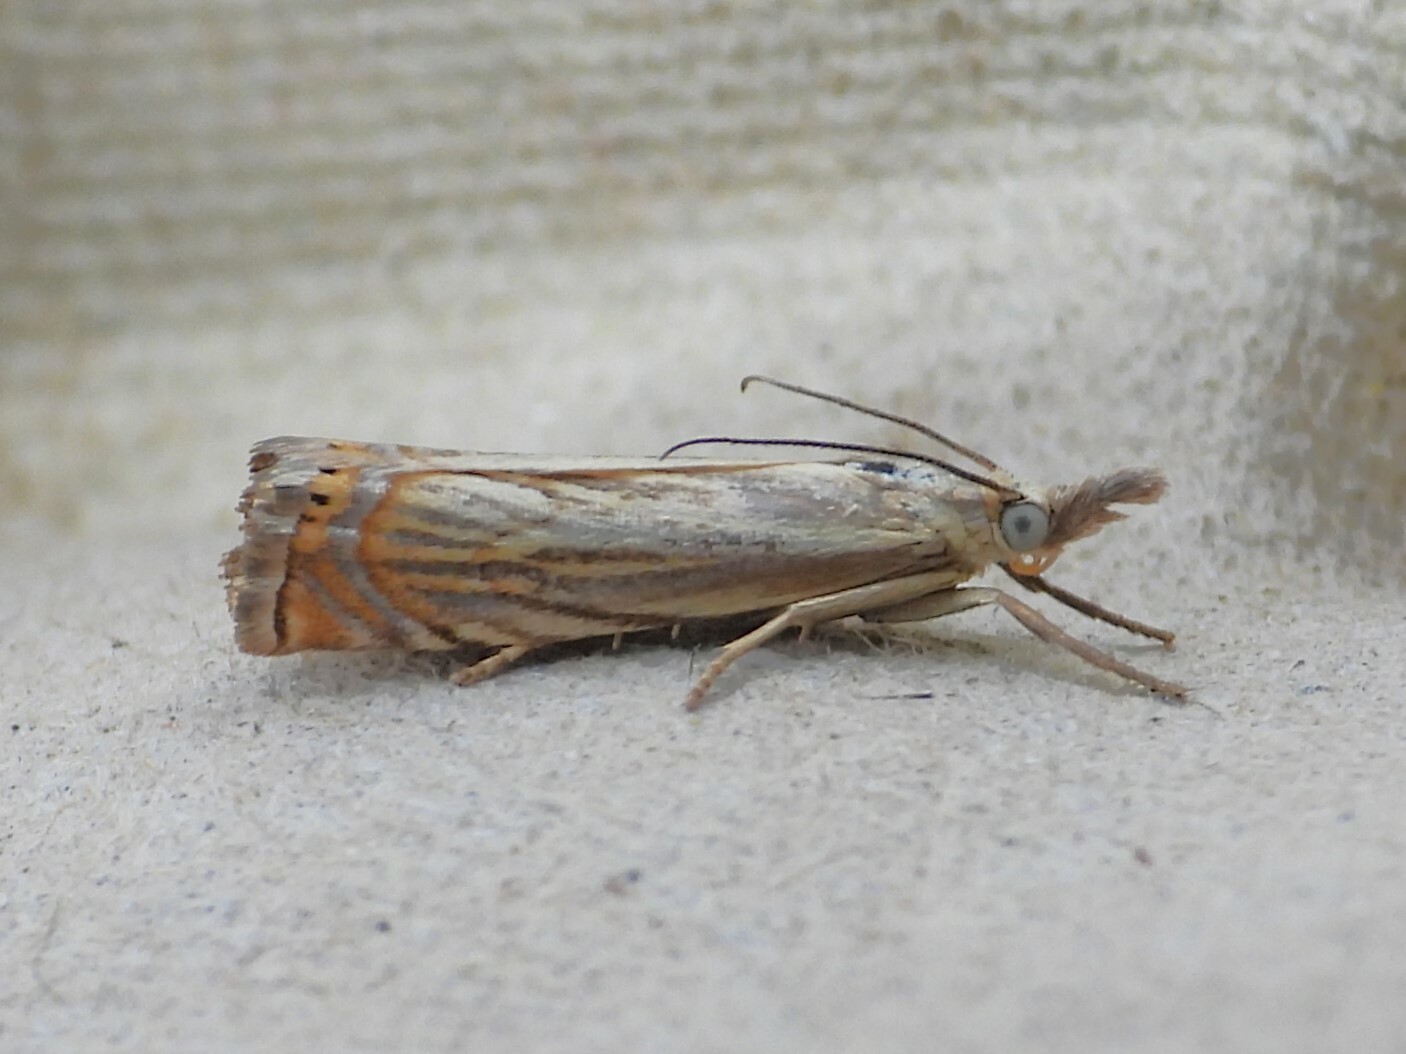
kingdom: Animalia
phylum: Arthropoda
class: Insecta
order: Lepidoptera
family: Crambidae
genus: Chrysoteuchia
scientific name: Chrysoteuchia topiarius
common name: Topiary grass-veneer
